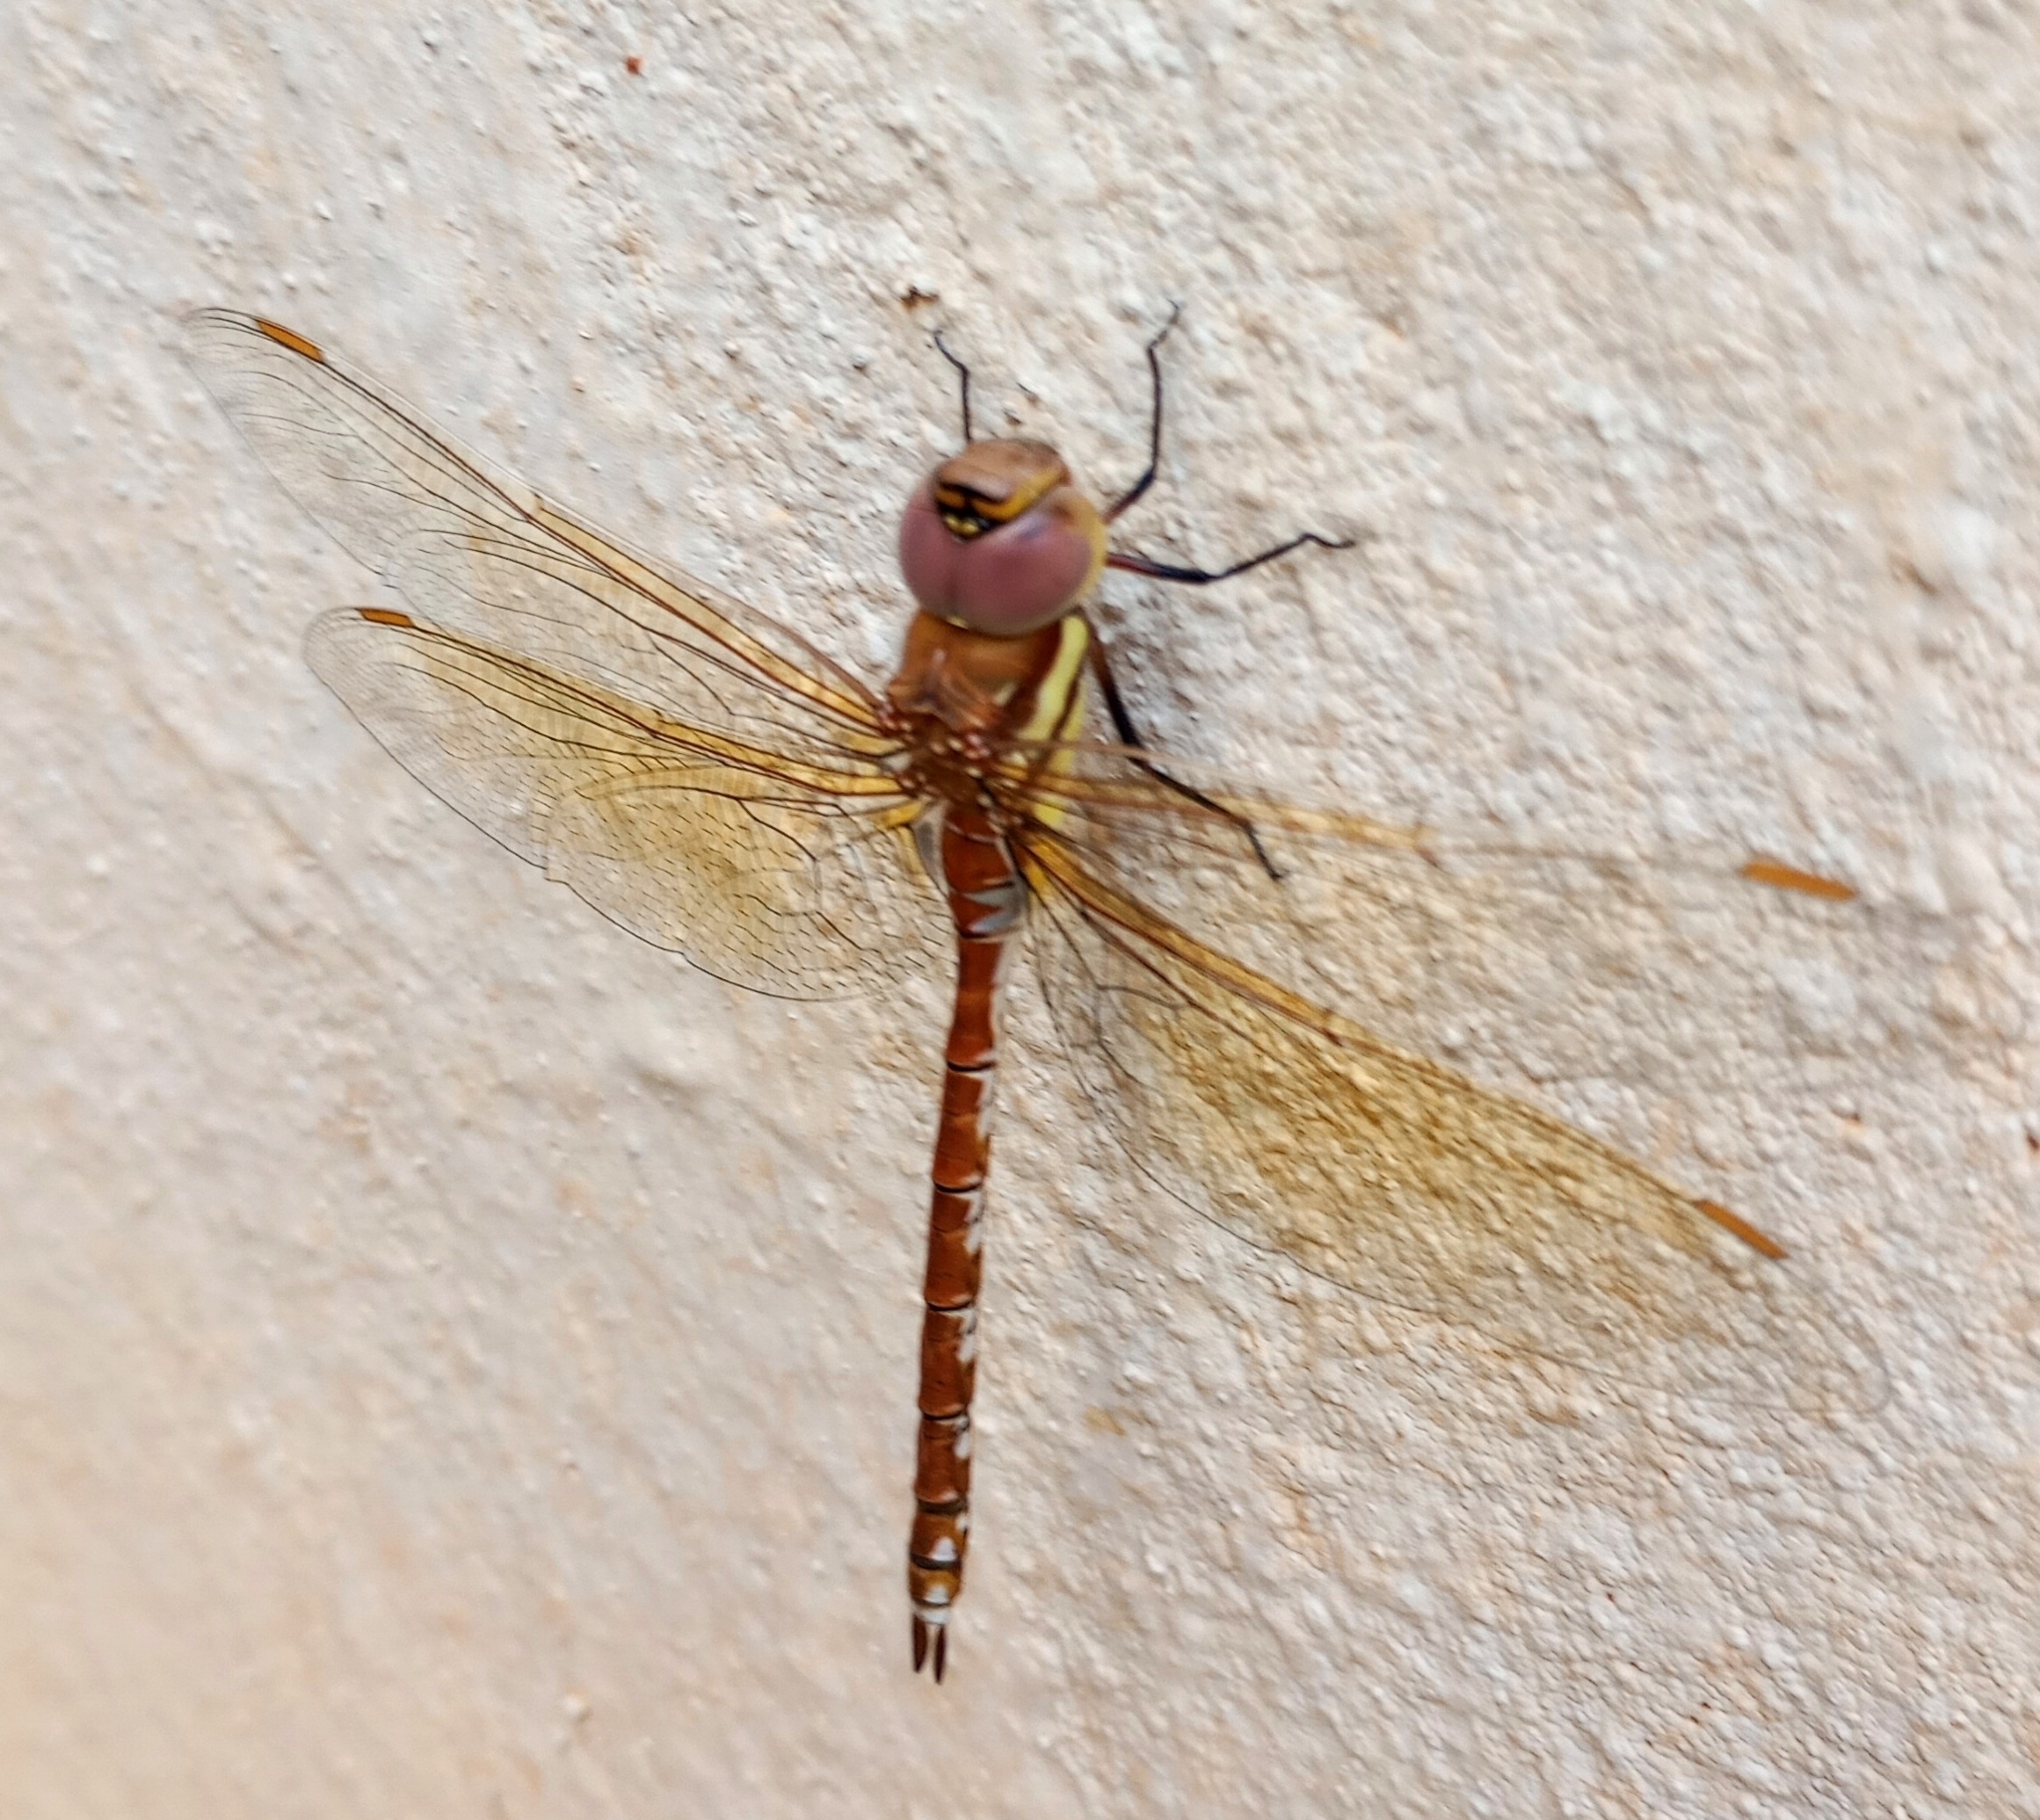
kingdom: Animalia
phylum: Arthropoda
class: Insecta
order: Odonata
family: Aeshnidae
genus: Anaciaeschna
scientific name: Anaciaeschna jaspidea
